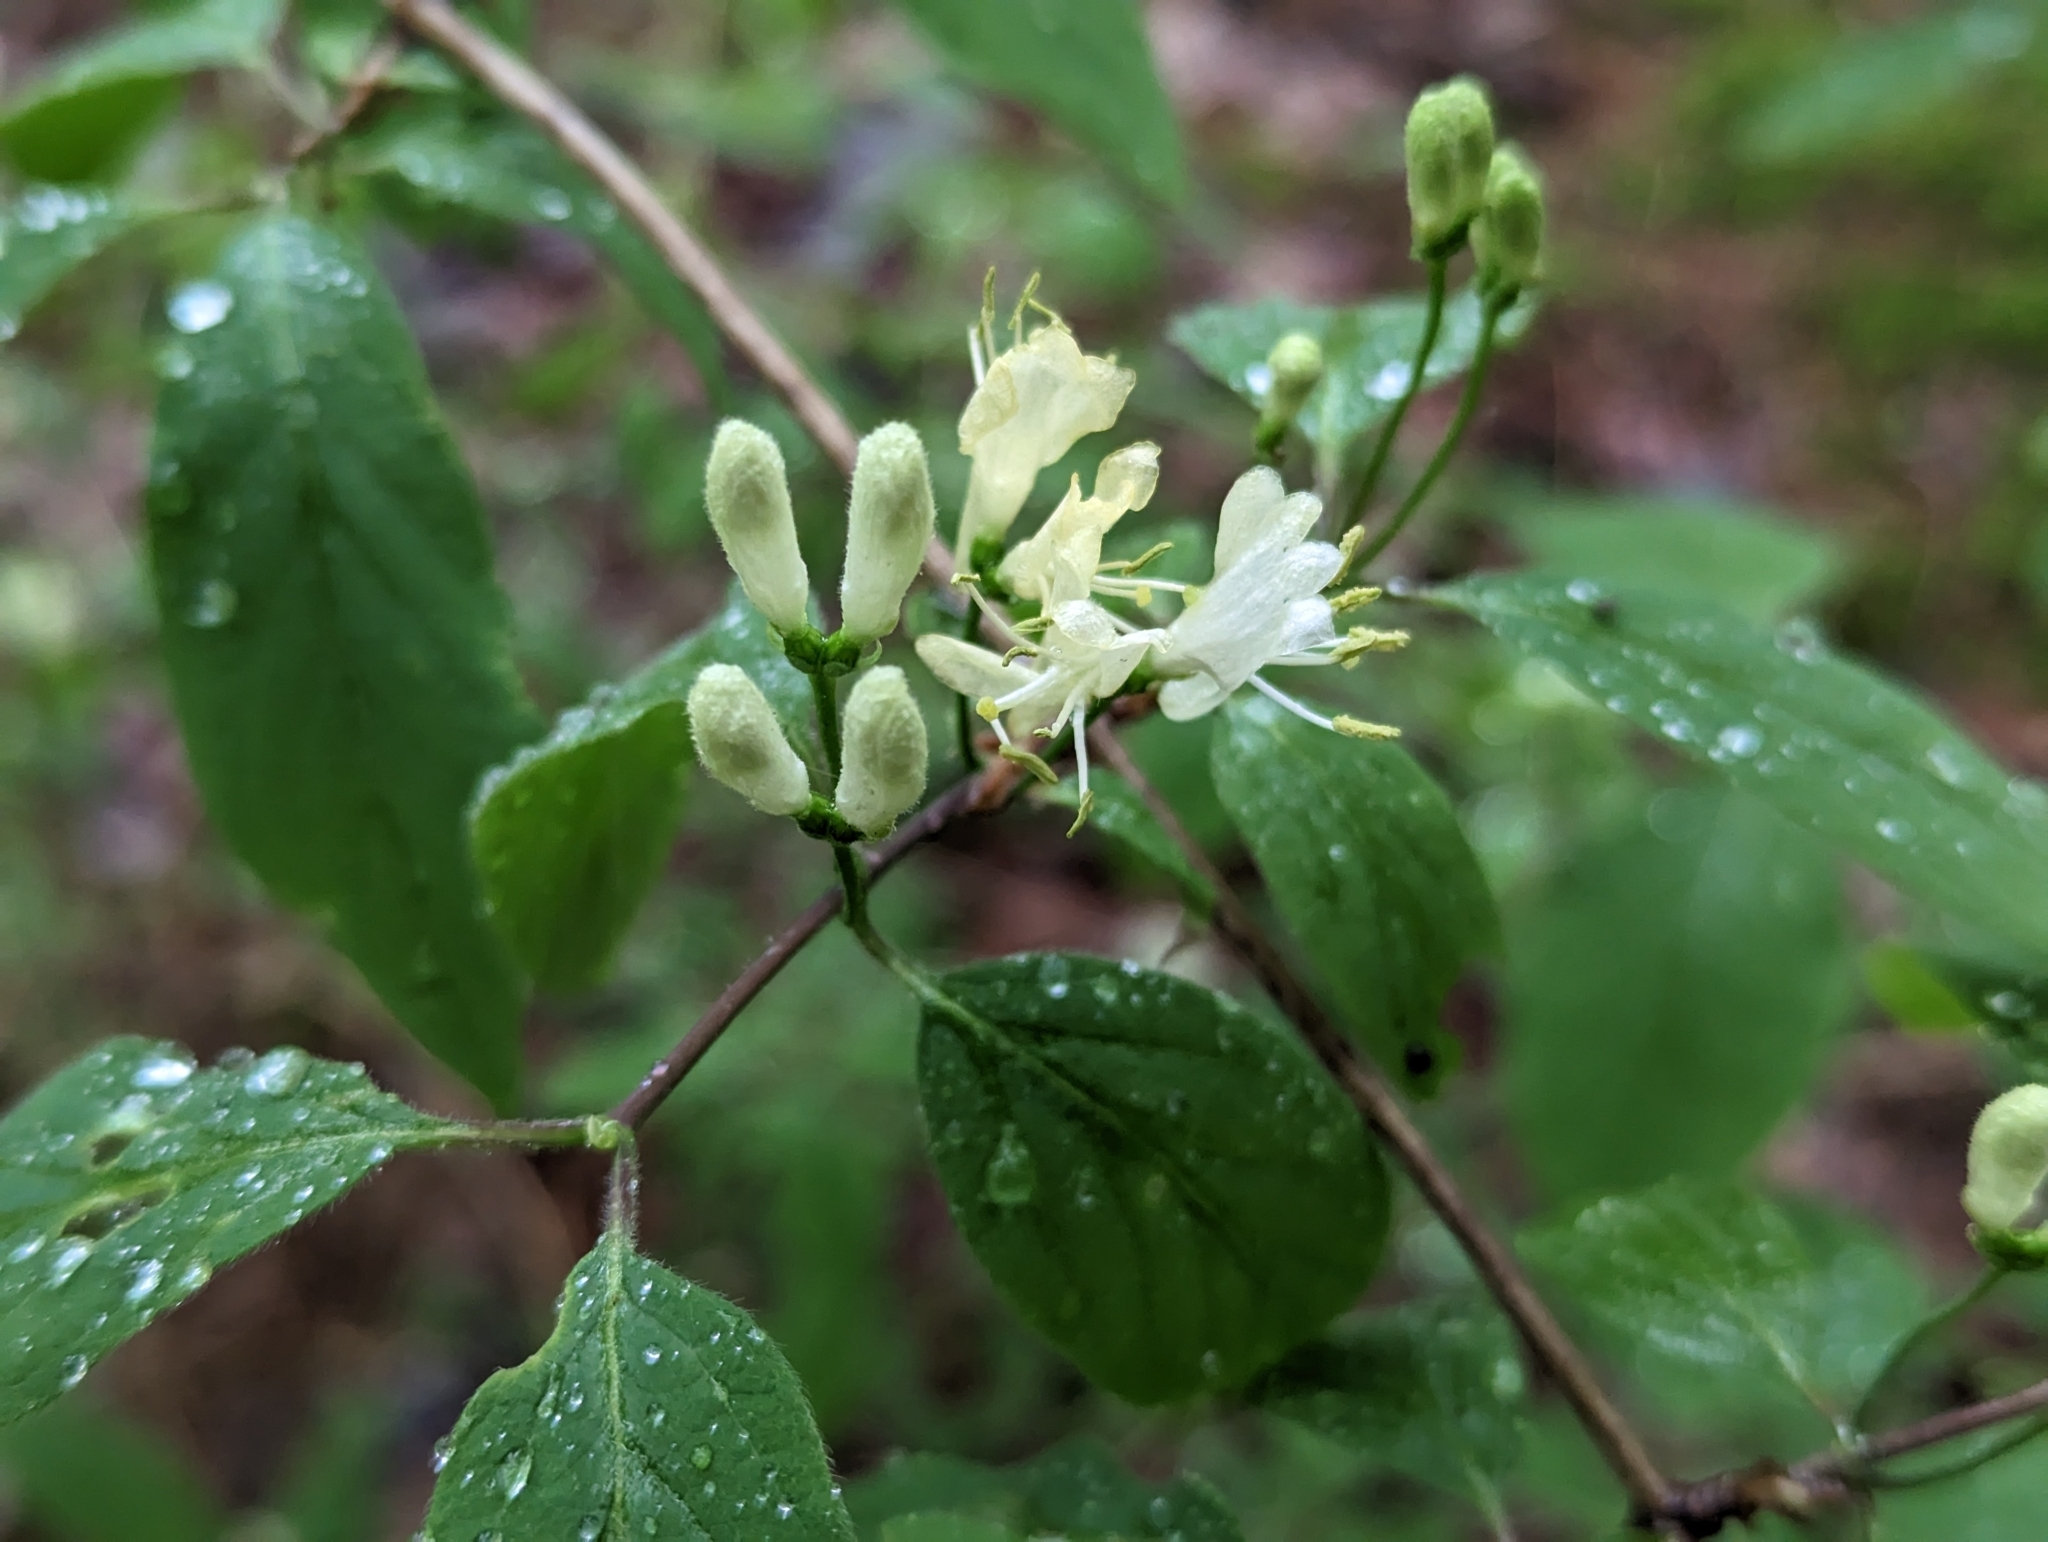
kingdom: Plantae
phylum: Tracheophyta
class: Magnoliopsida
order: Dipsacales
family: Caprifoliaceae
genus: Lonicera
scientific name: Lonicera xylosteum
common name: Fly honeysuckle
